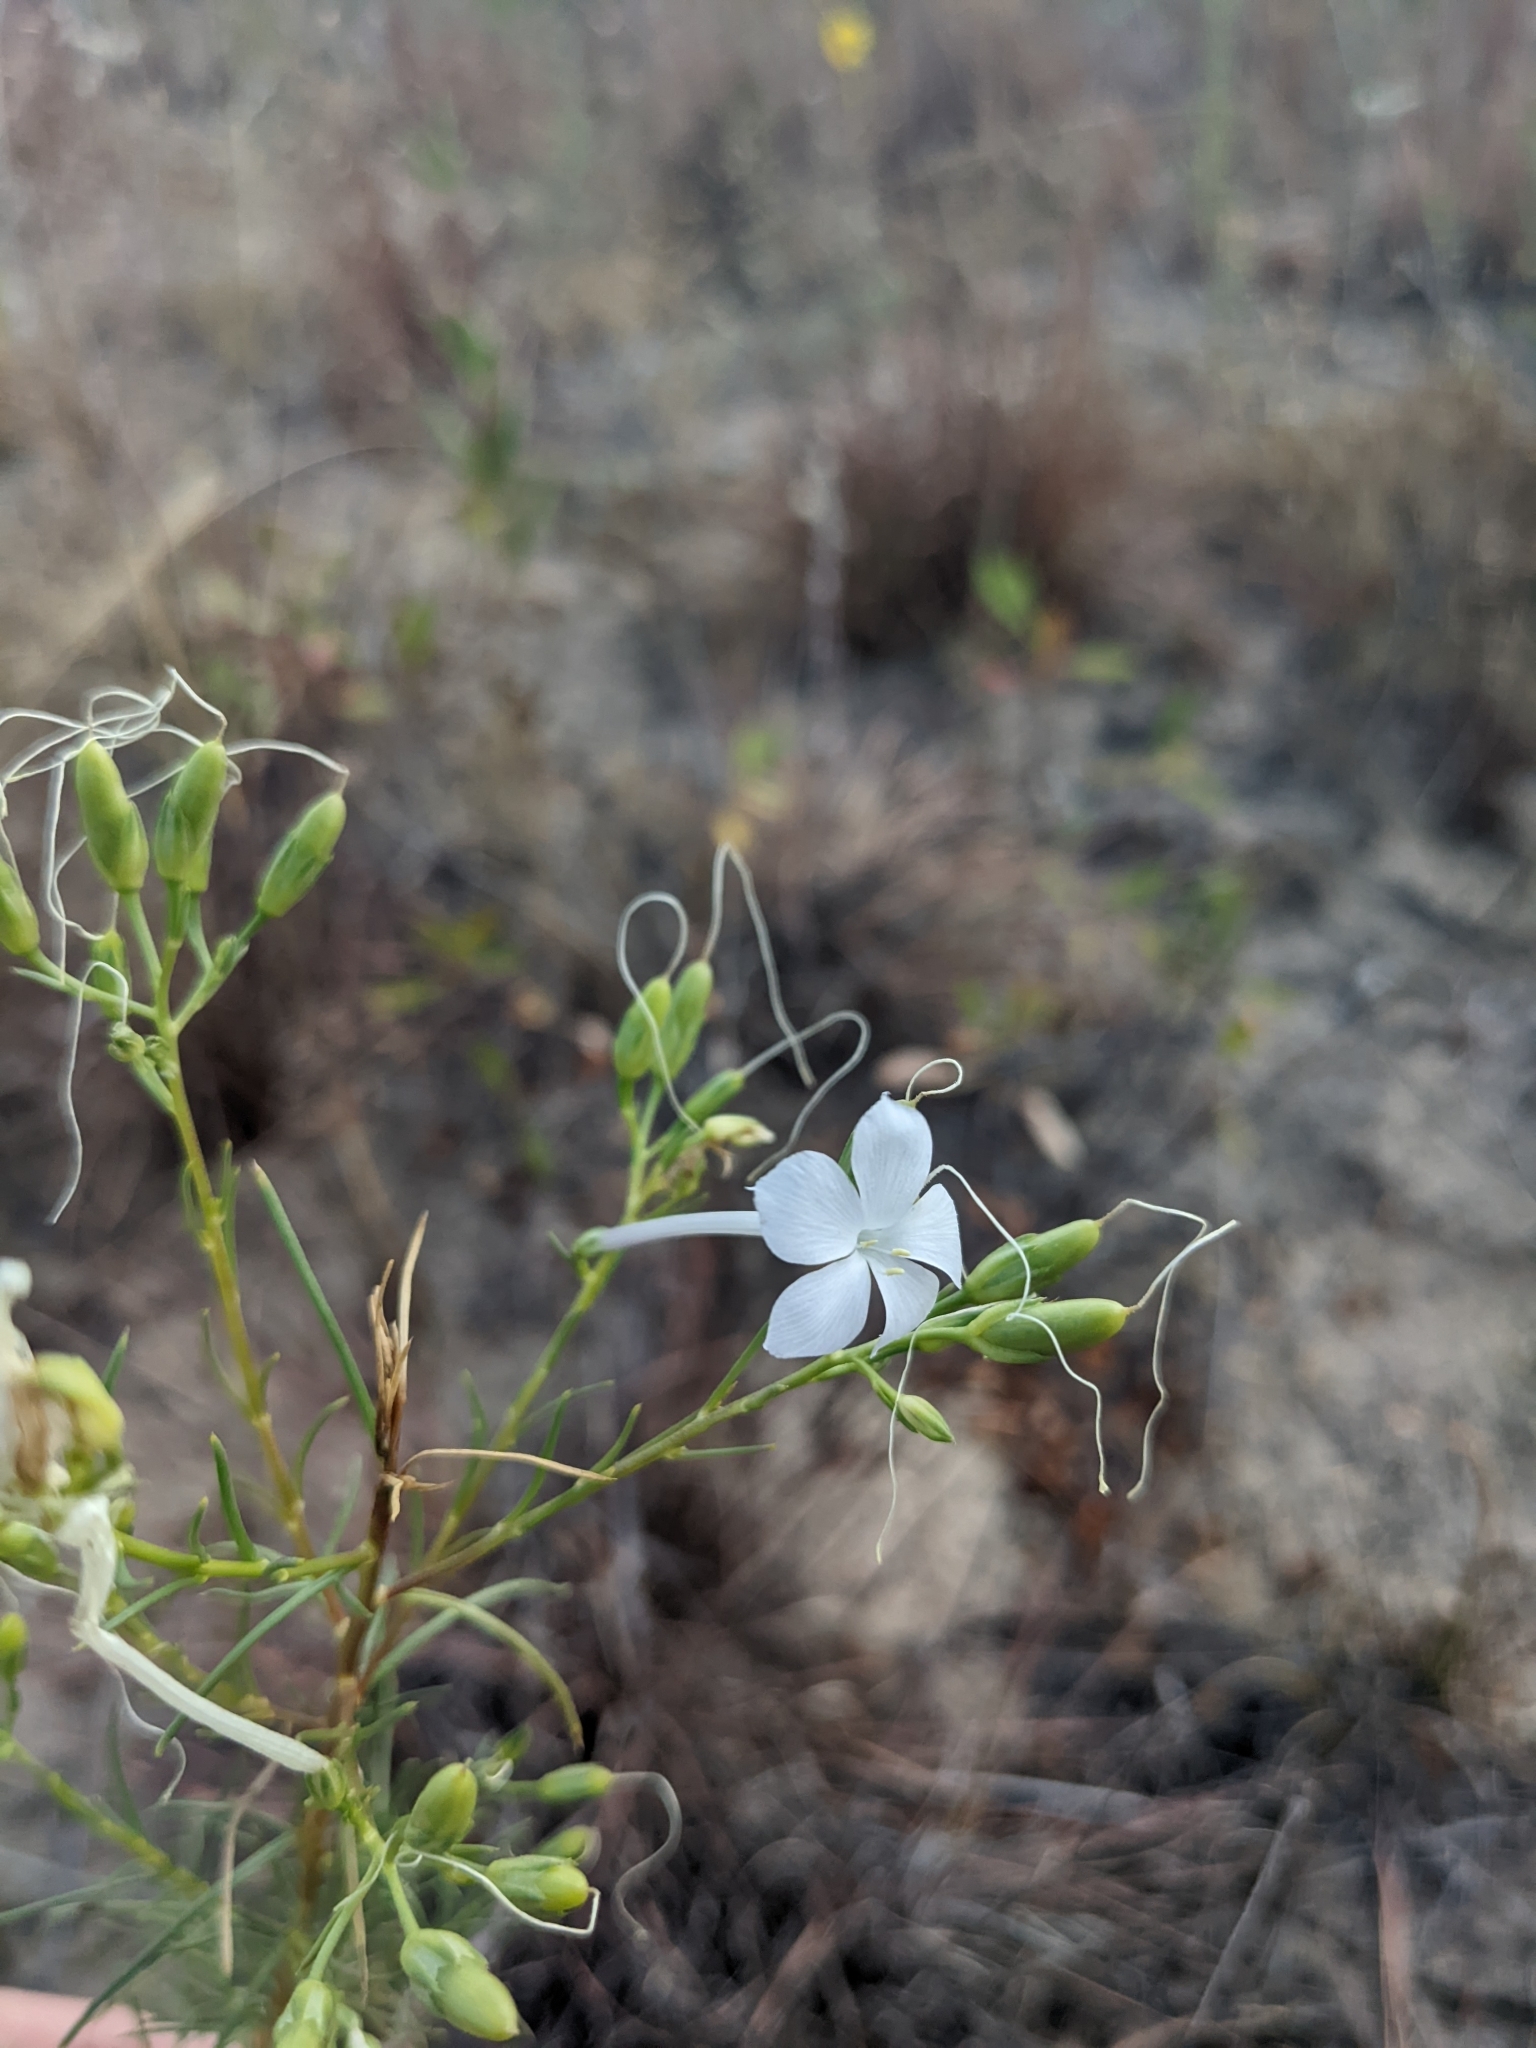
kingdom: Plantae
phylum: Tracheophyta
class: Magnoliopsida
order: Ericales
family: Polemoniaceae
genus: Ipomopsis
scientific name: Ipomopsis longiflora
